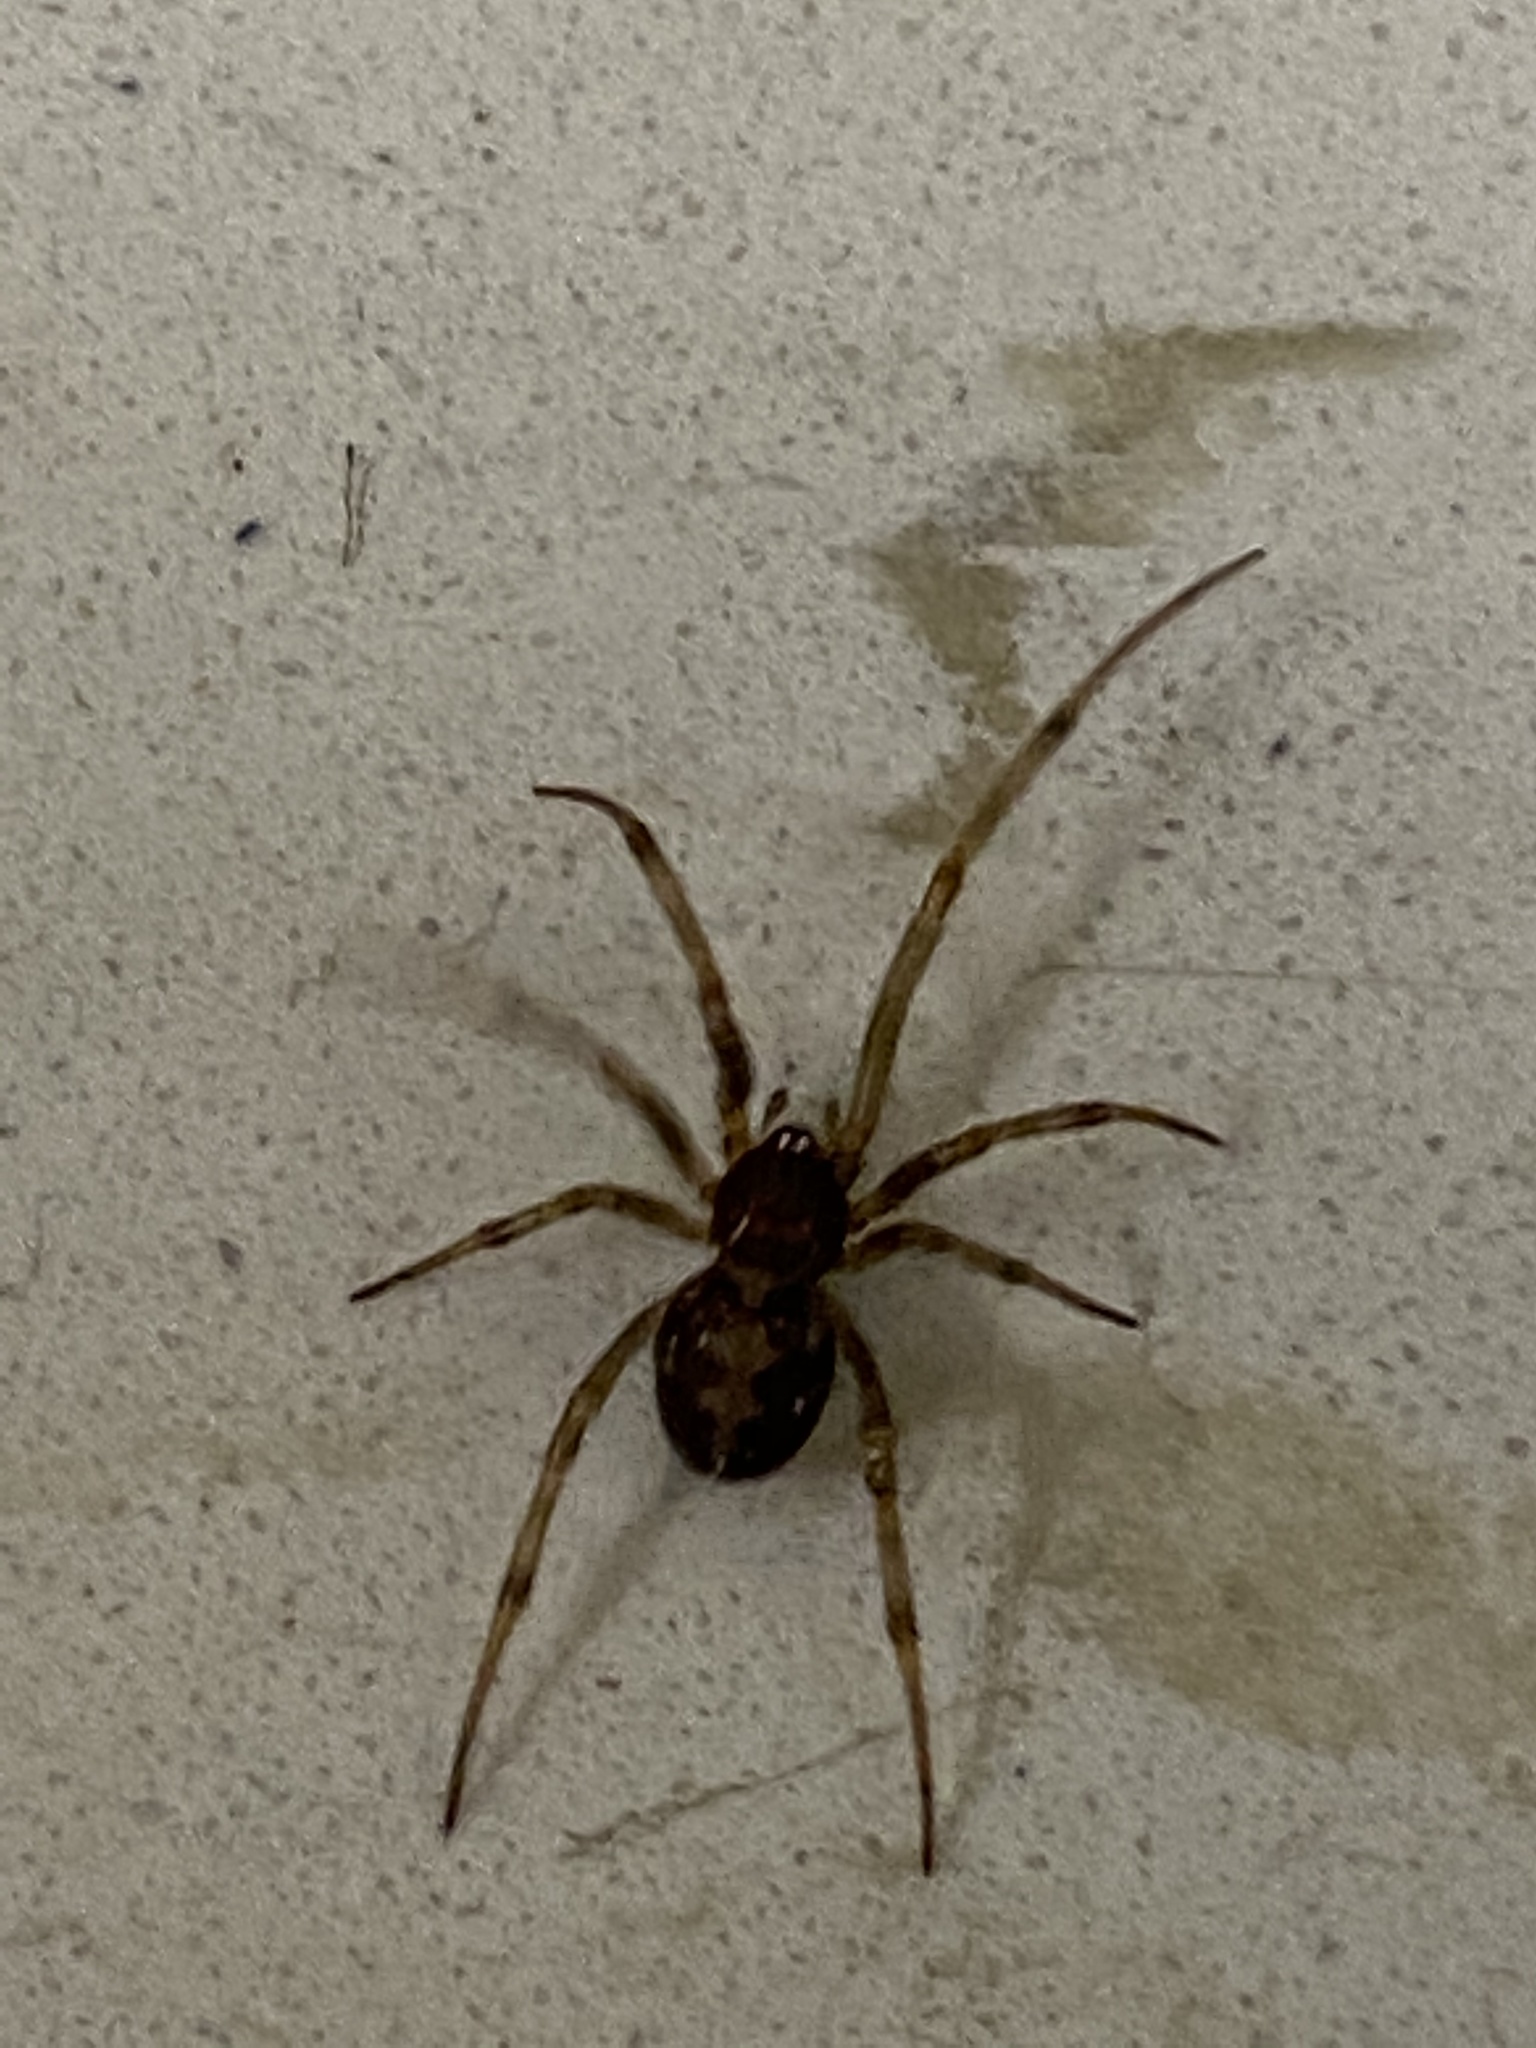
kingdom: Animalia
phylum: Arthropoda
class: Arachnida
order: Araneae
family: Theridiidae
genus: Steatoda
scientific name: Steatoda triangulosa
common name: Triangulate bud spider
